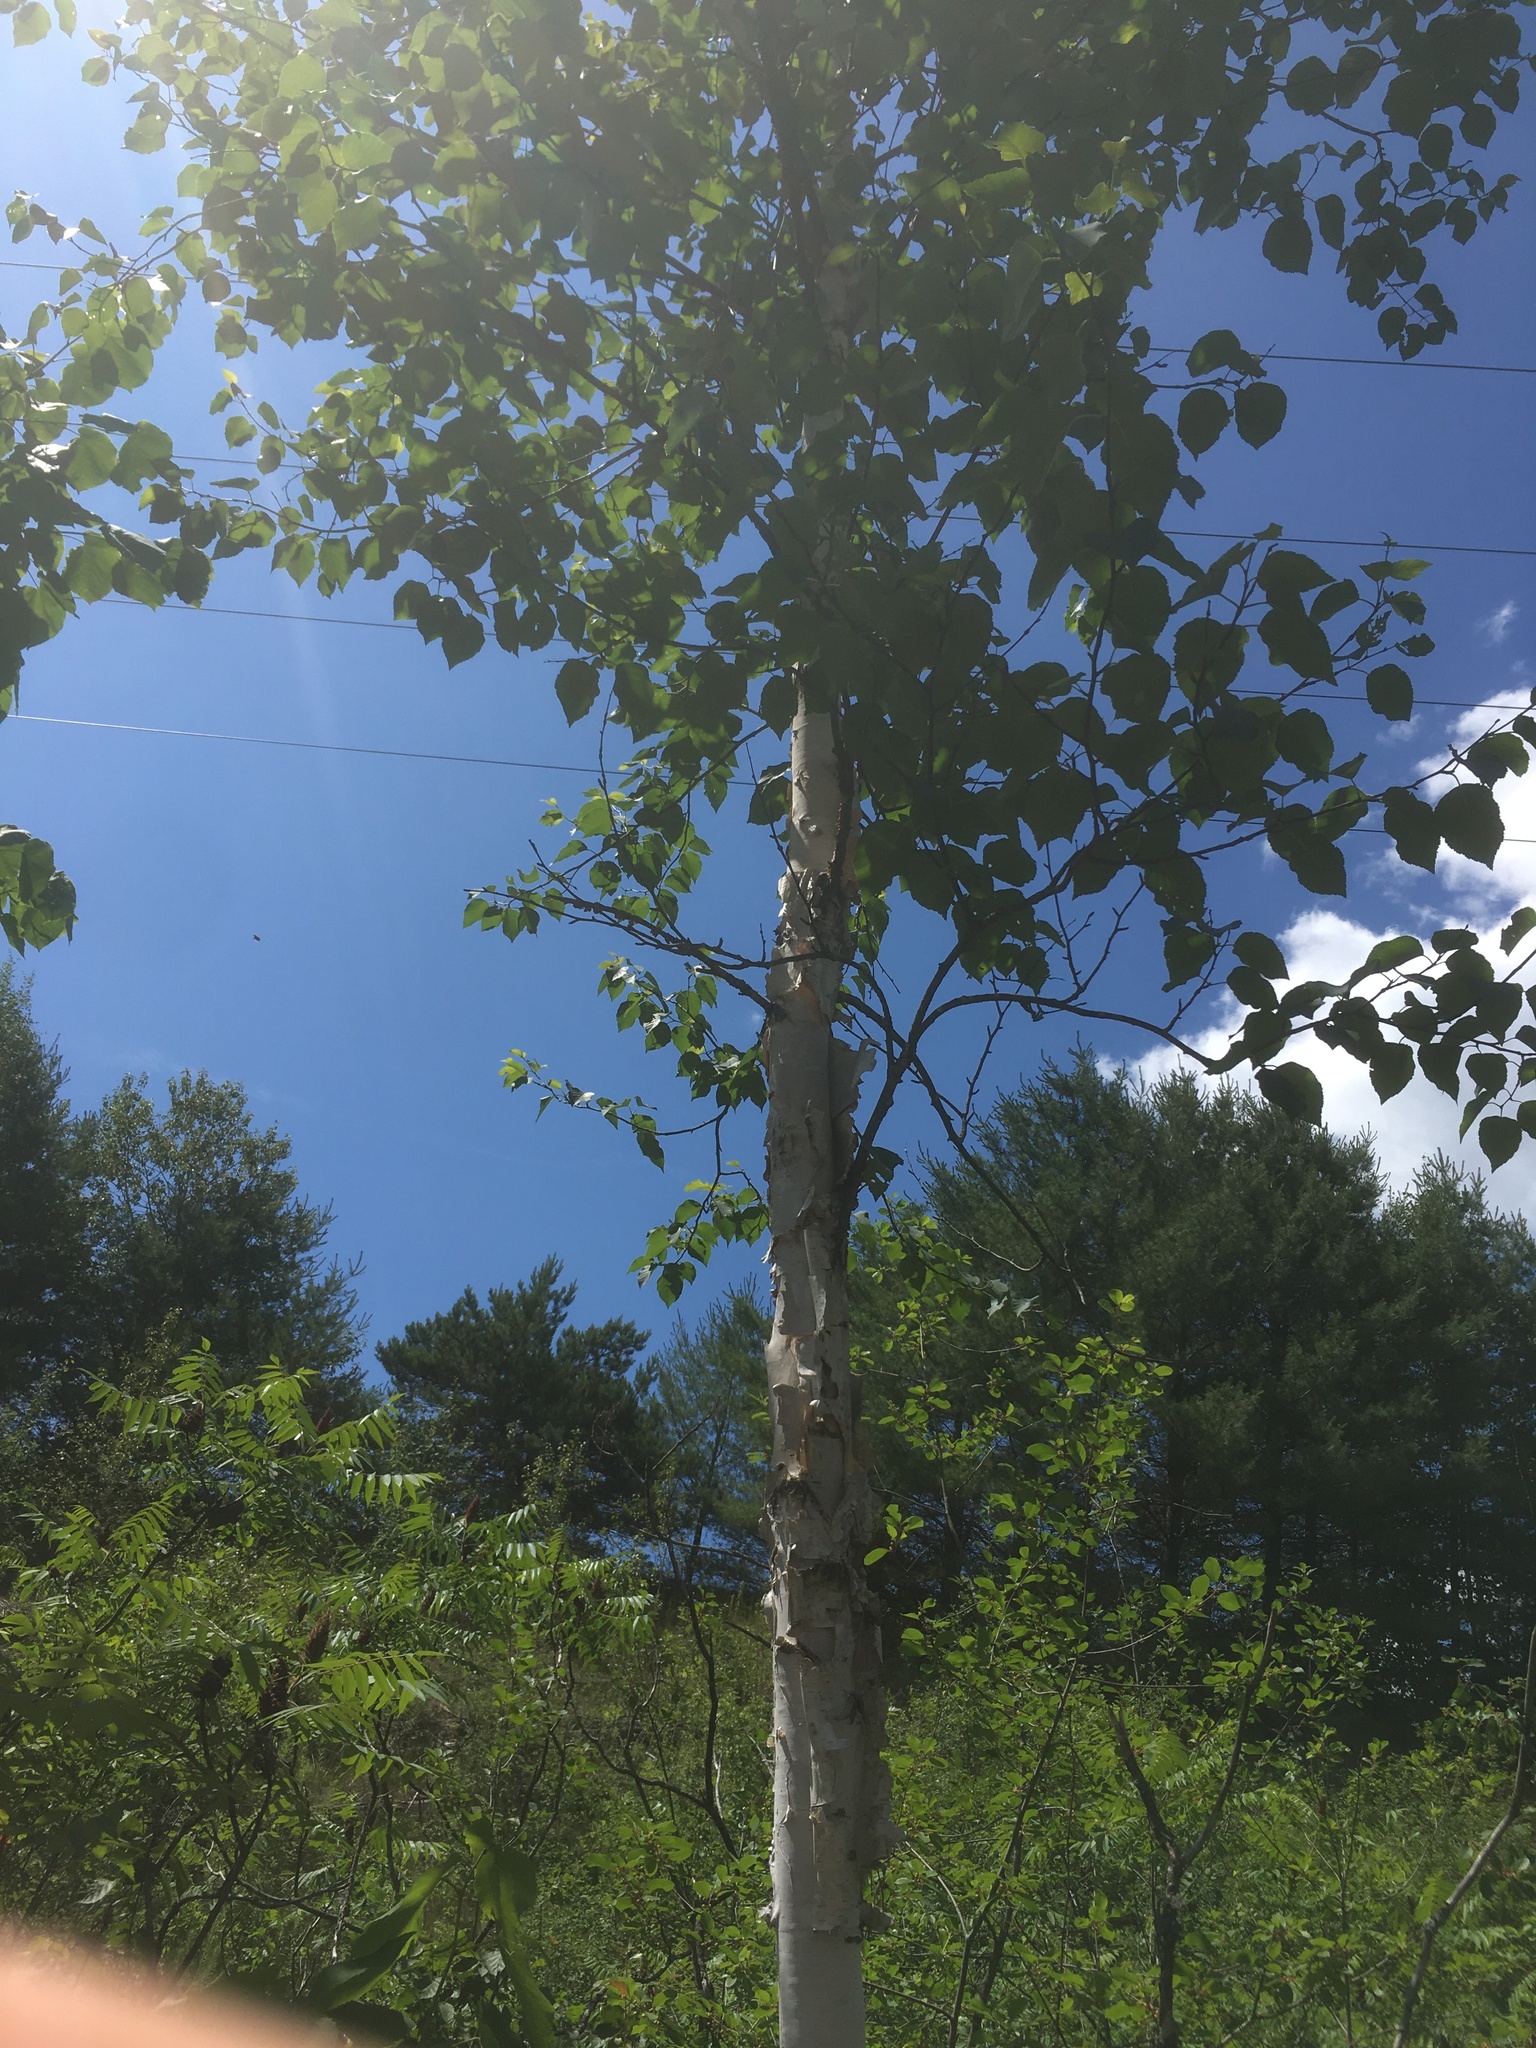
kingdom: Plantae
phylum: Tracheophyta
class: Magnoliopsida
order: Fagales
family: Betulaceae
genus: Betula
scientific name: Betula papyrifera
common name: Paper birch
